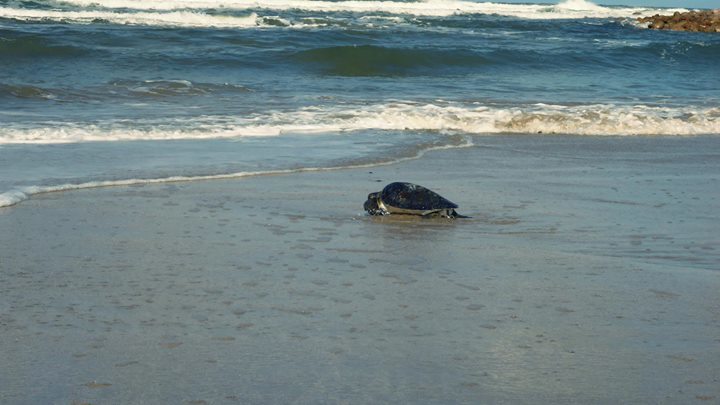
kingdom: Animalia
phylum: Chordata
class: Testudines
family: Cheloniidae
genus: Chelonia
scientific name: Chelonia mydas
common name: Green turtle
